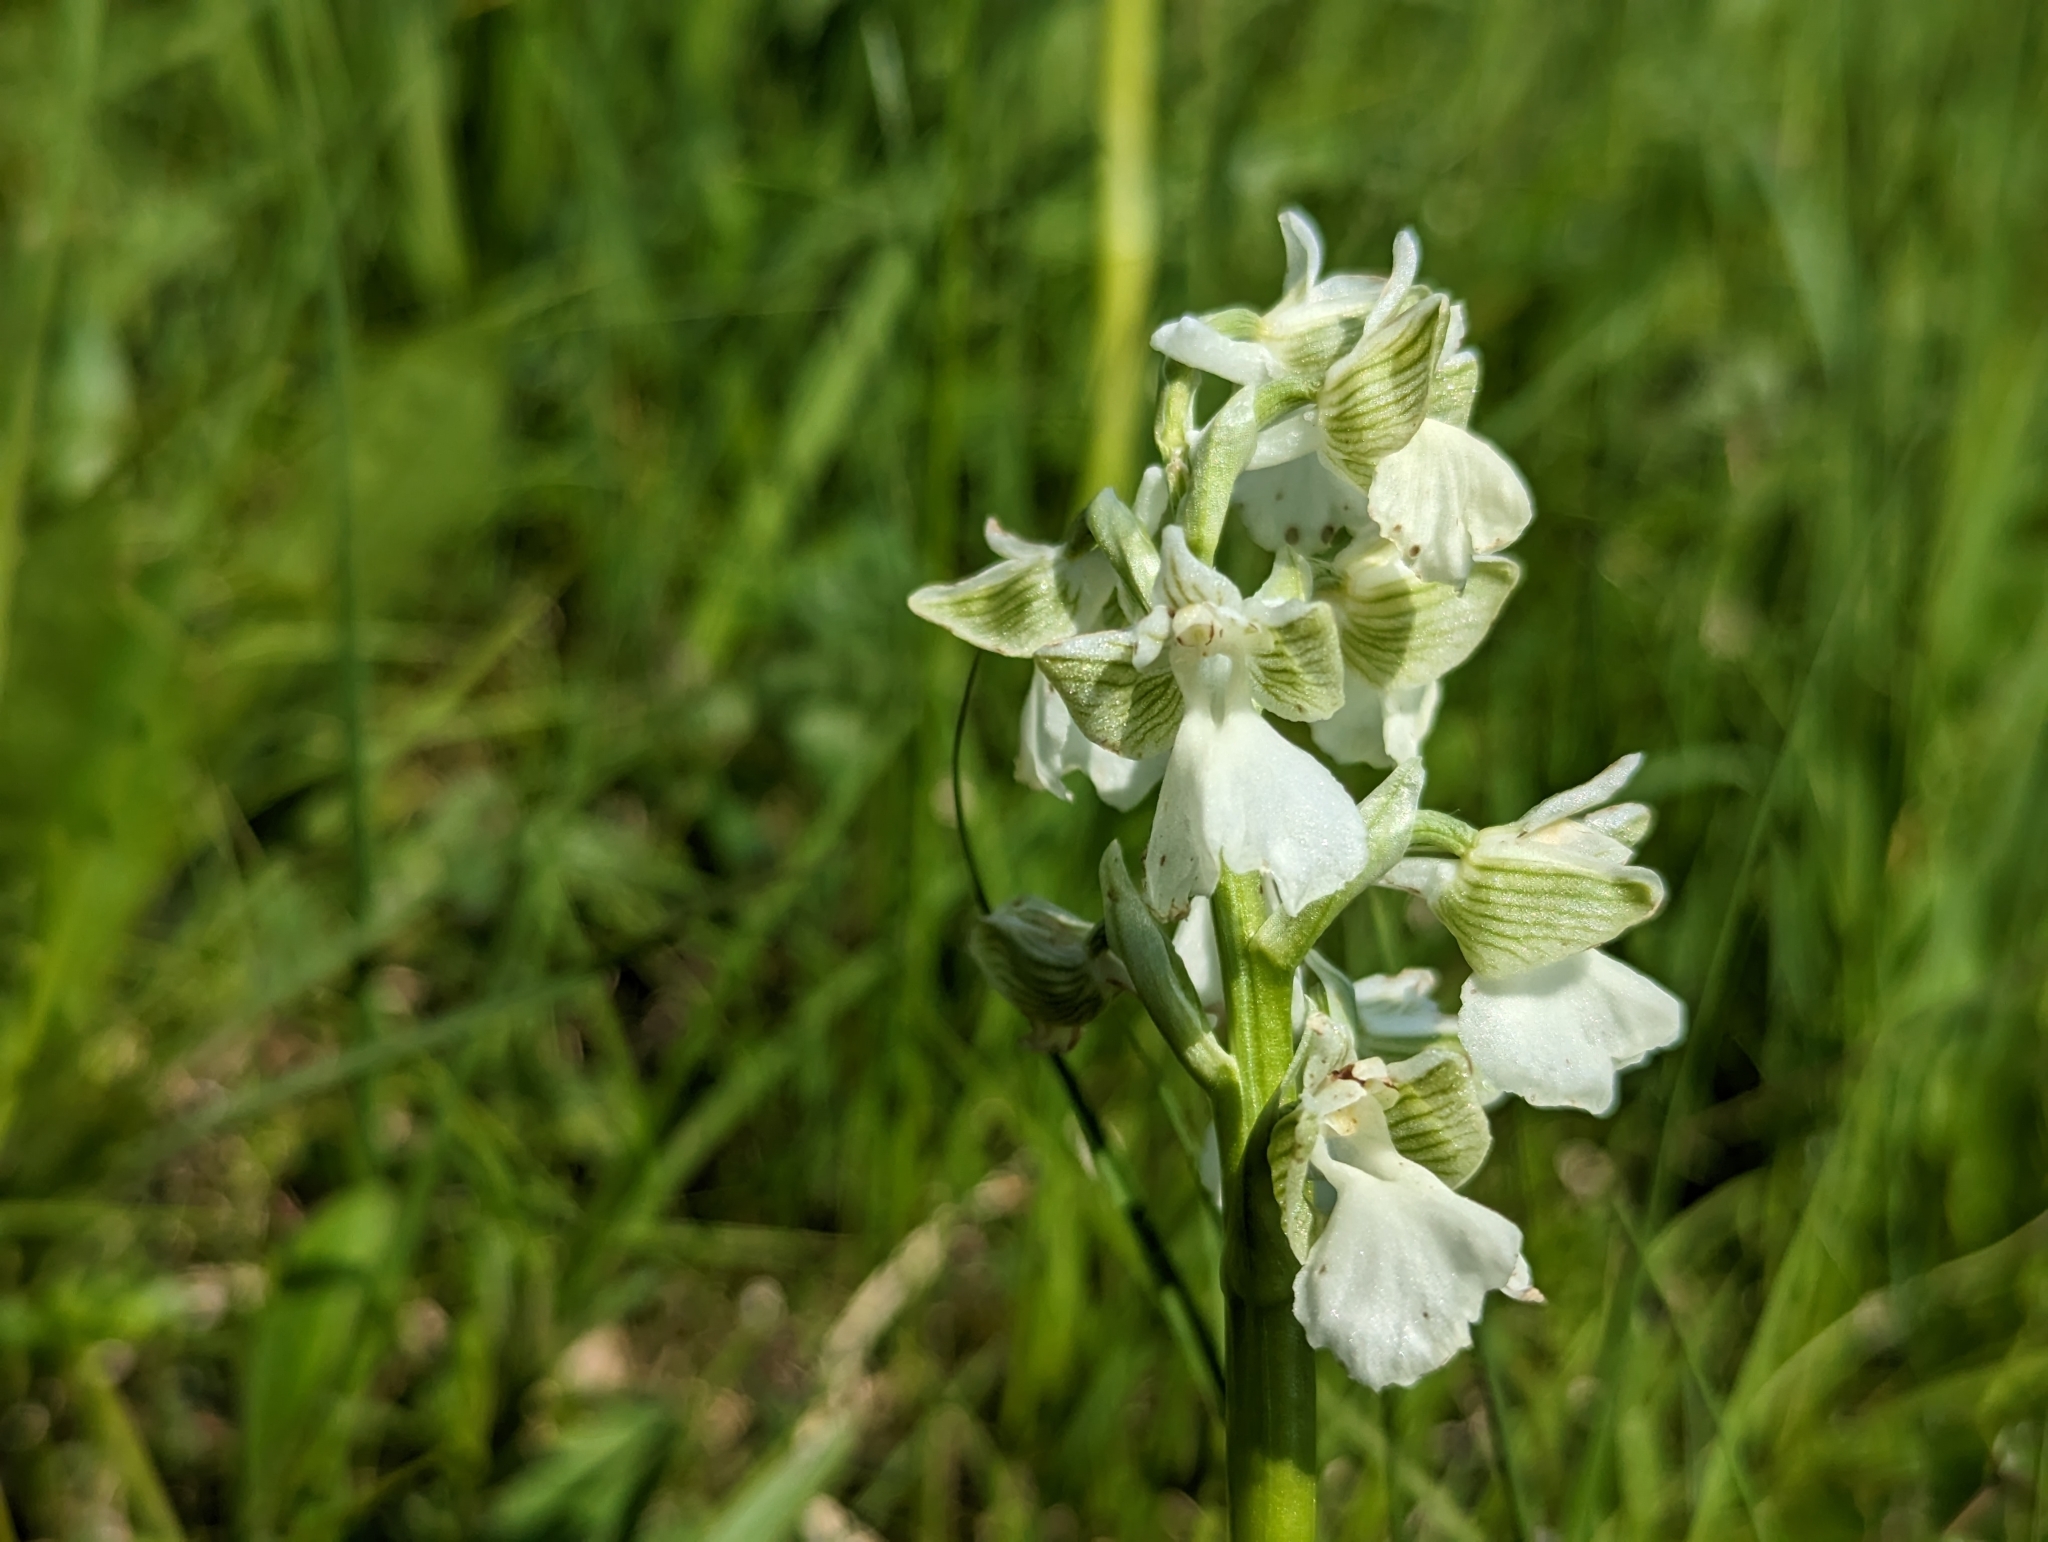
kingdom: Plantae
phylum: Tracheophyta
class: Liliopsida
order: Asparagales
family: Orchidaceae
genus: Anacamptis
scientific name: Anacamptis morio
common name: Green-winged orchid
